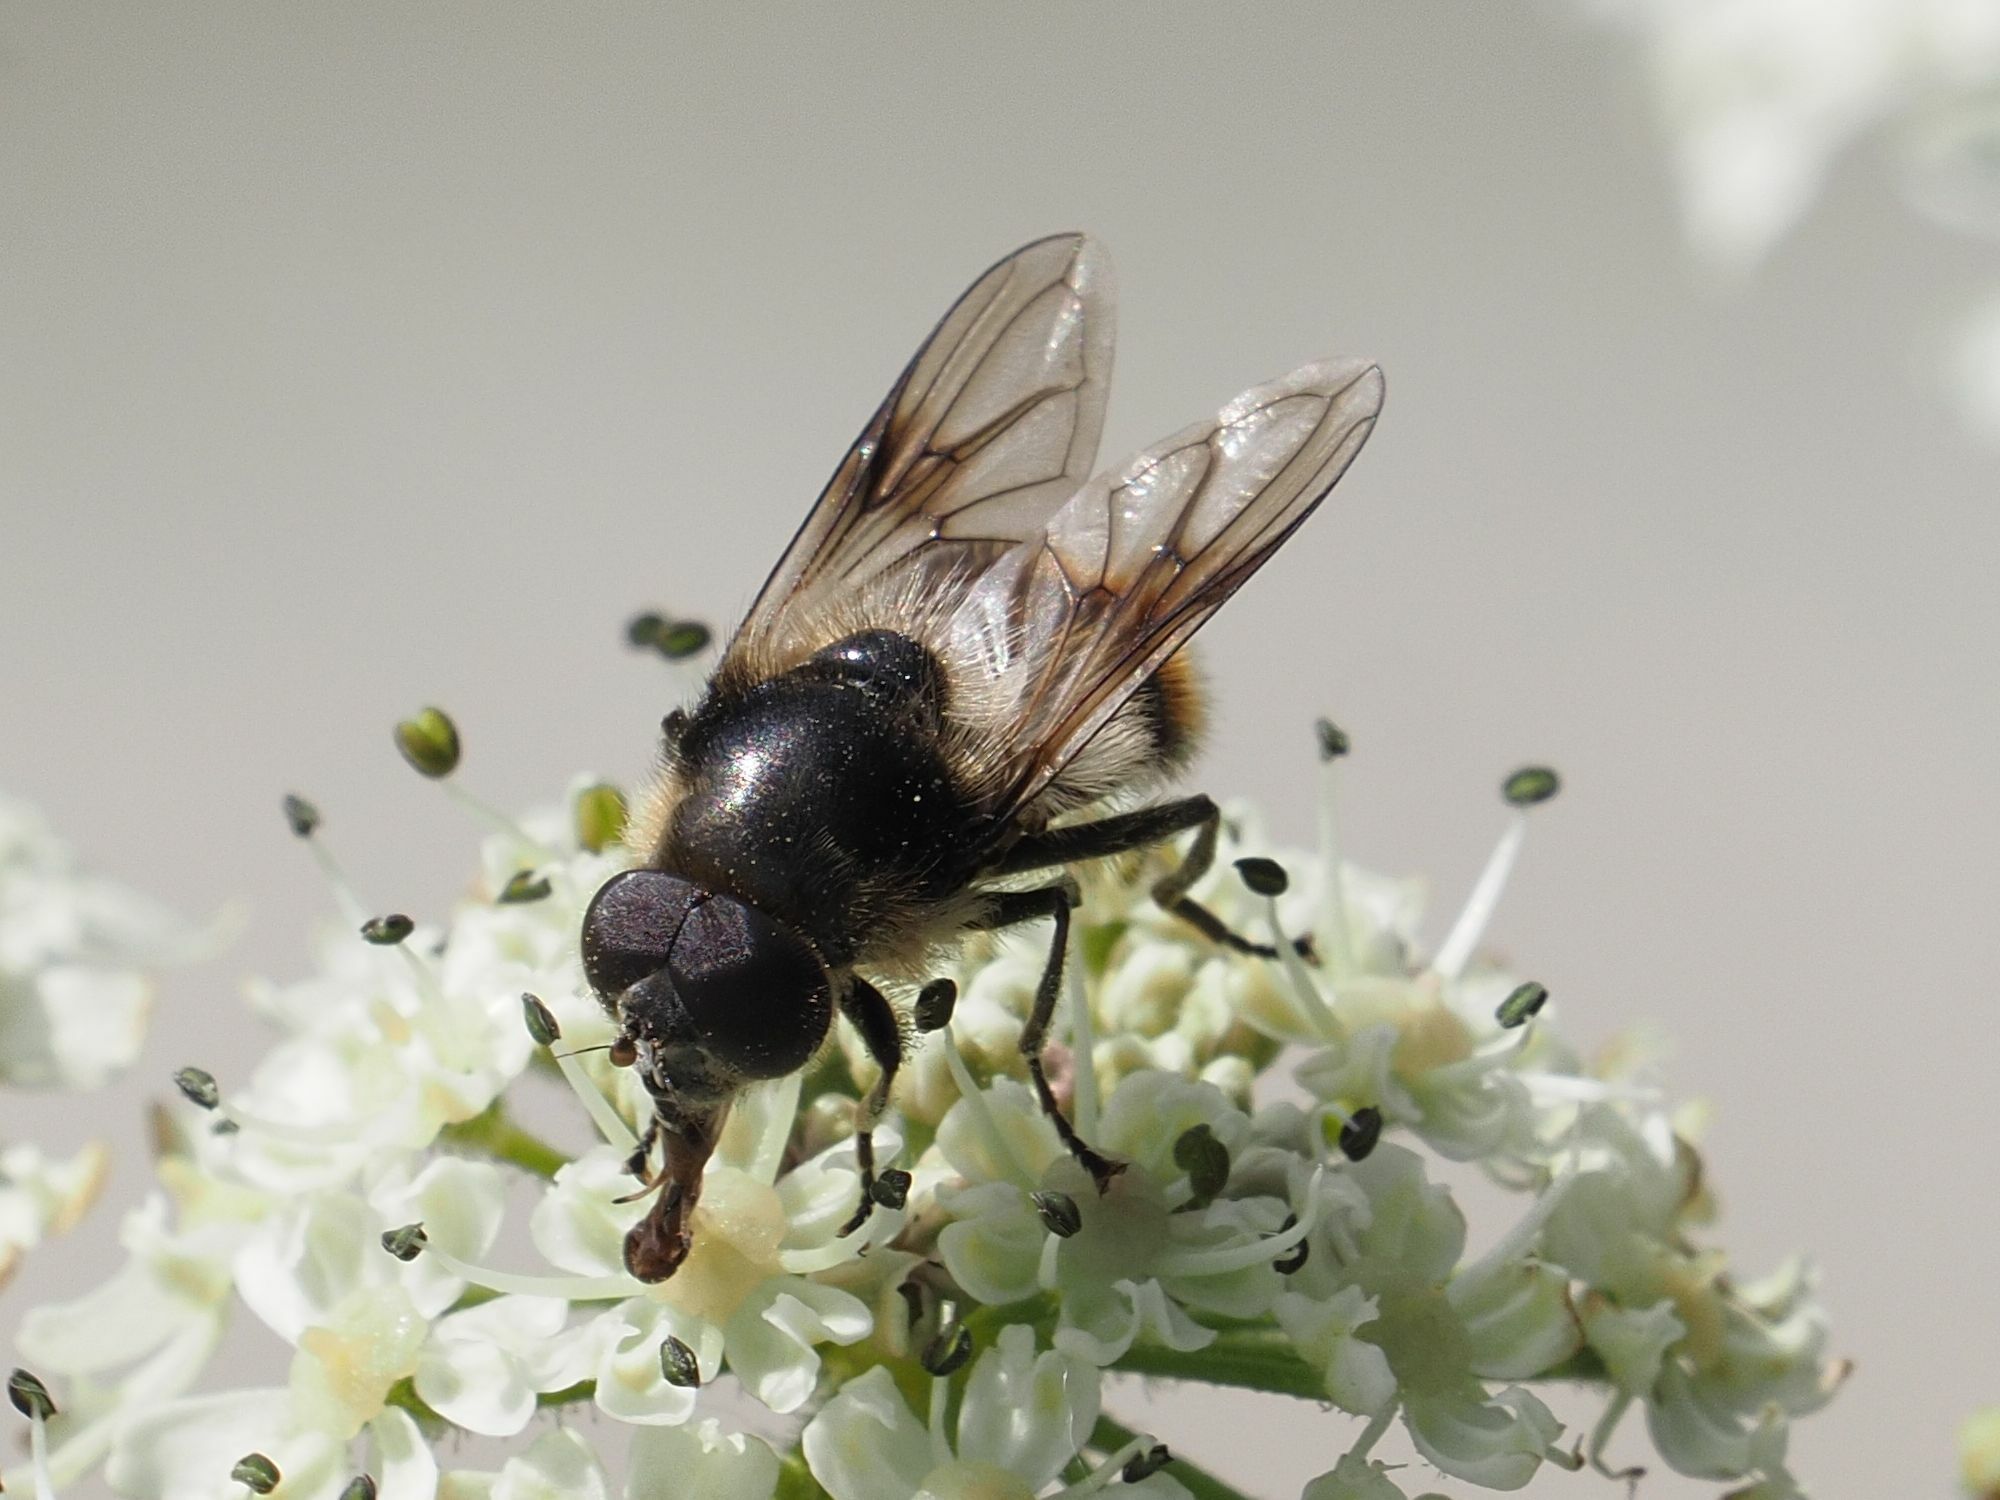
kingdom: Animalia
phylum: Arthropoda
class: Insecta
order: Diptera
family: Syrphidae
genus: Cheilosia
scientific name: Cheilosia illustrata
